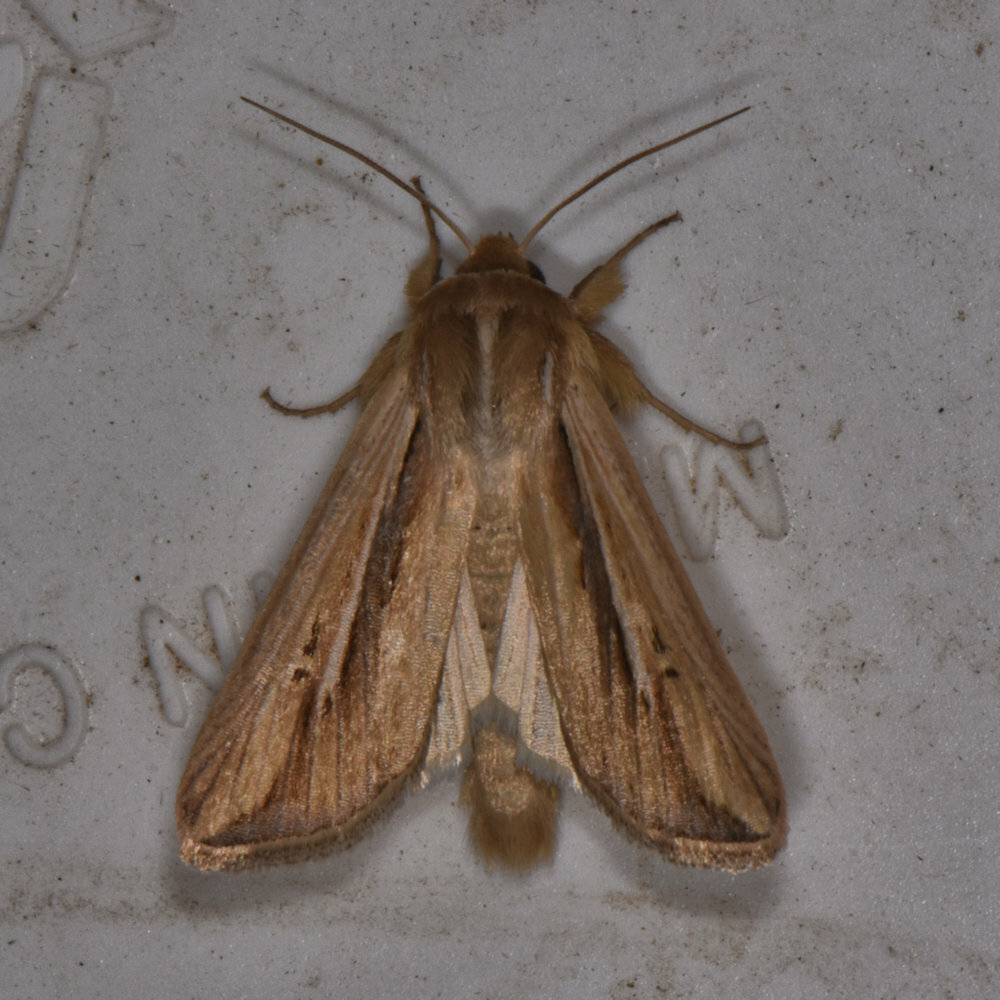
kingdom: Animalia
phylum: Arthropoda
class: Insecta
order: Lepidoptera
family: Noctuidae
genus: Dargida
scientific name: Dargida diffusa
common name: Wheat head armyworm
